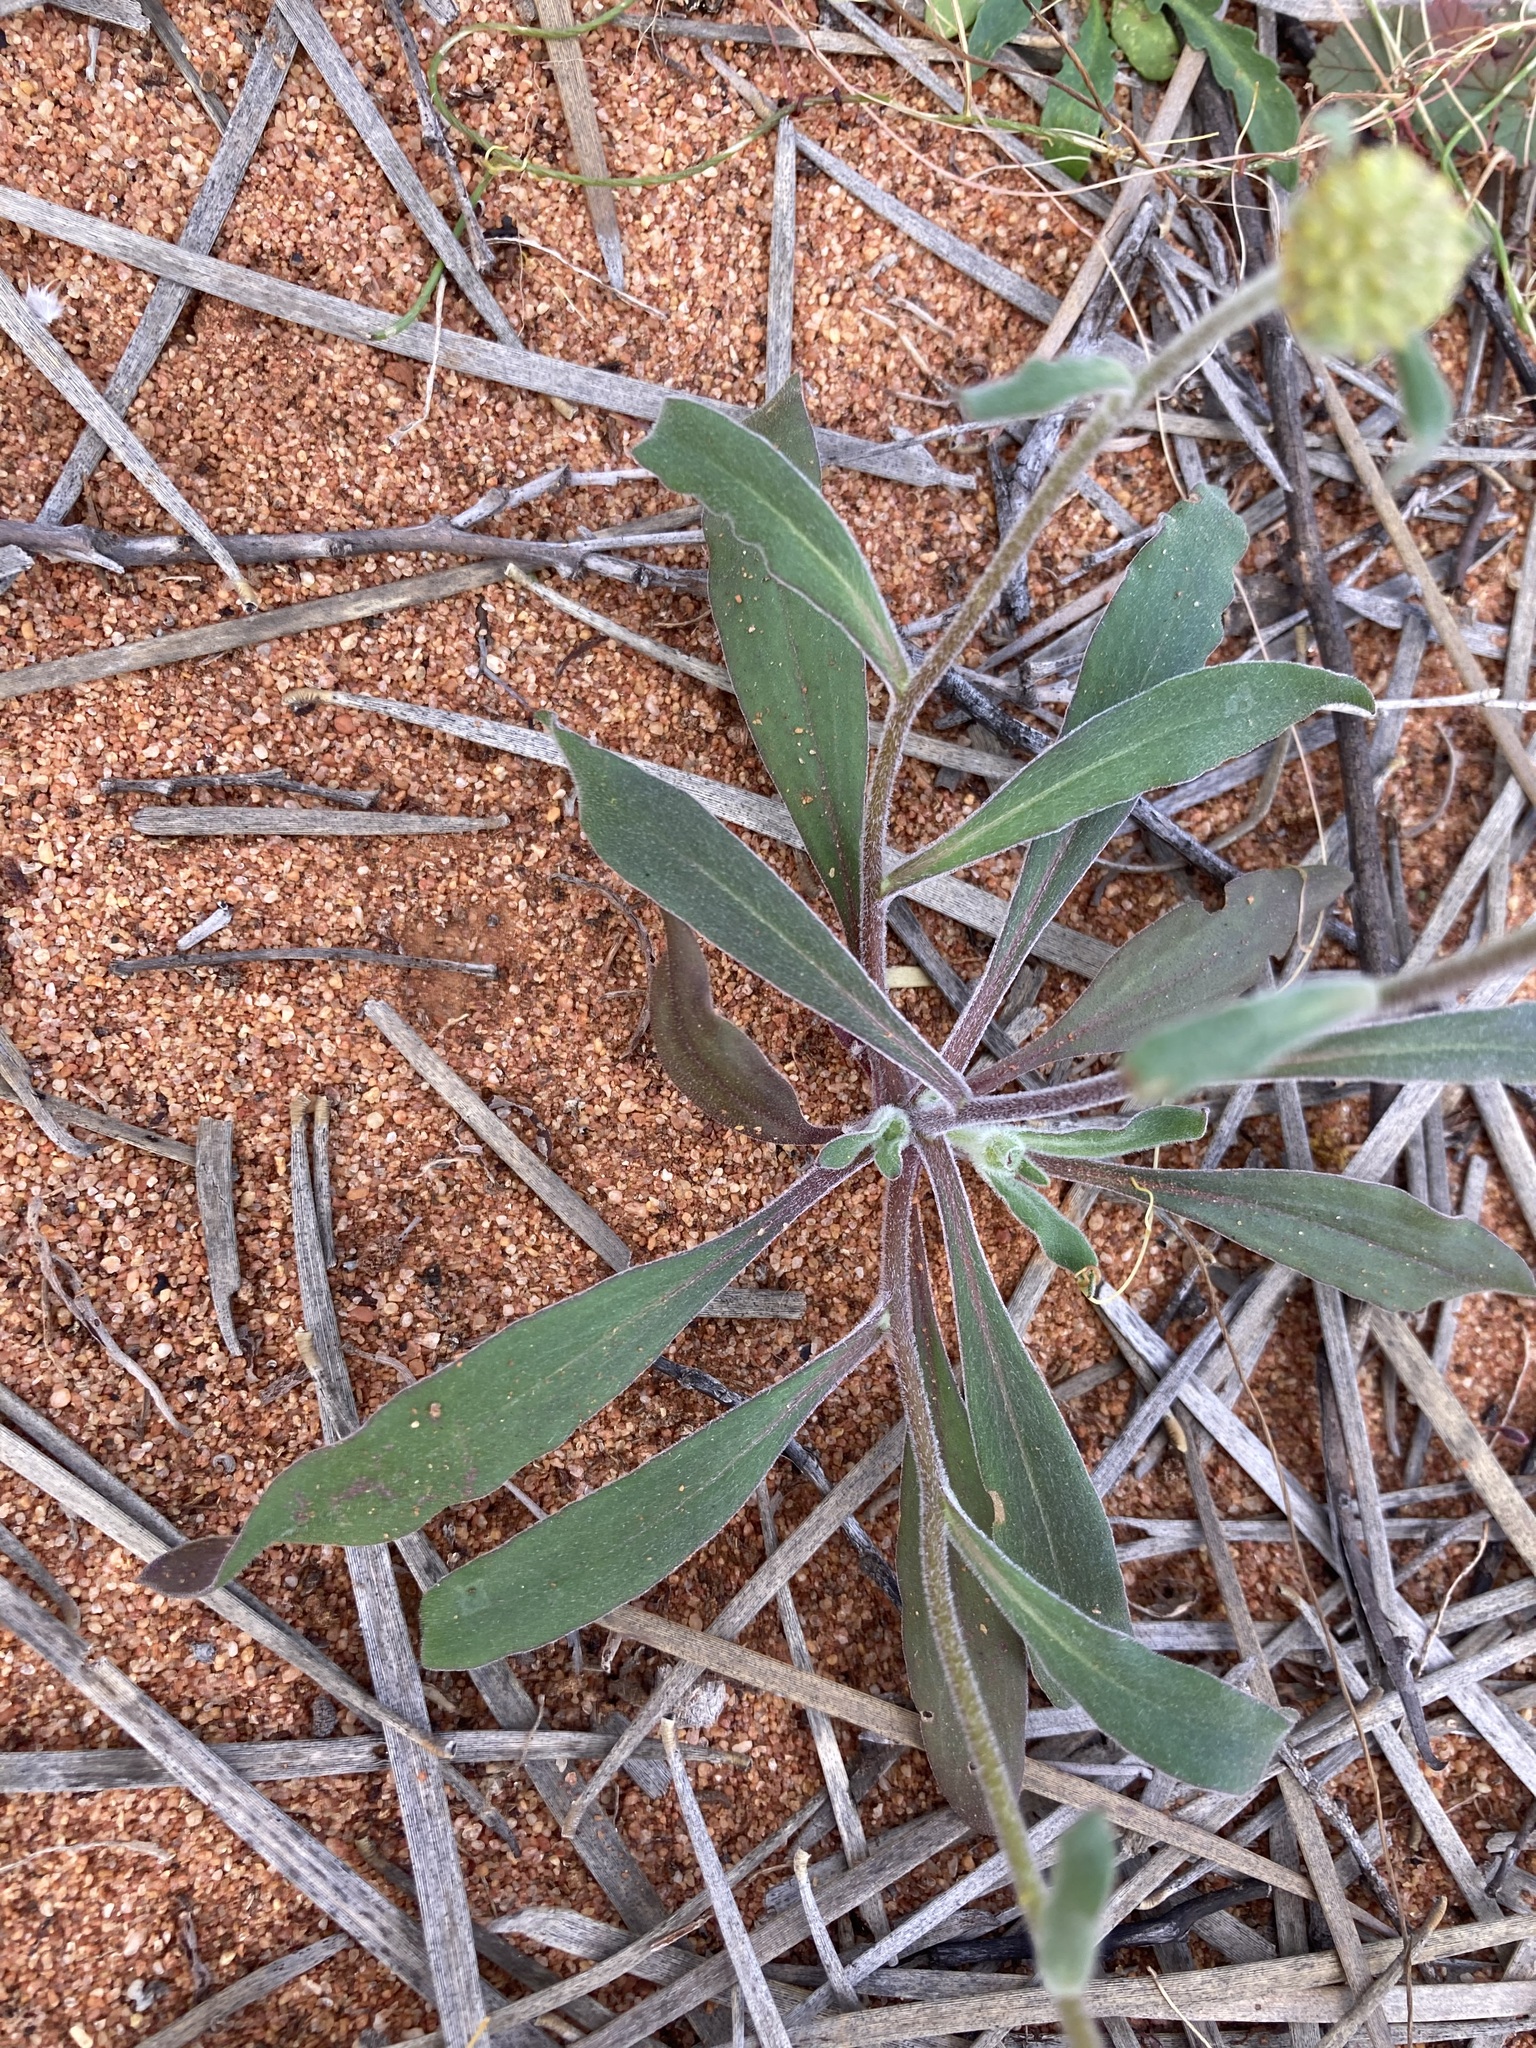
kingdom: Plantae
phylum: Tracheophyta
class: Magnoliopsida
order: Asterales
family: Asteraceae
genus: Myriocephalus
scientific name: Myriocephalus guerinae
